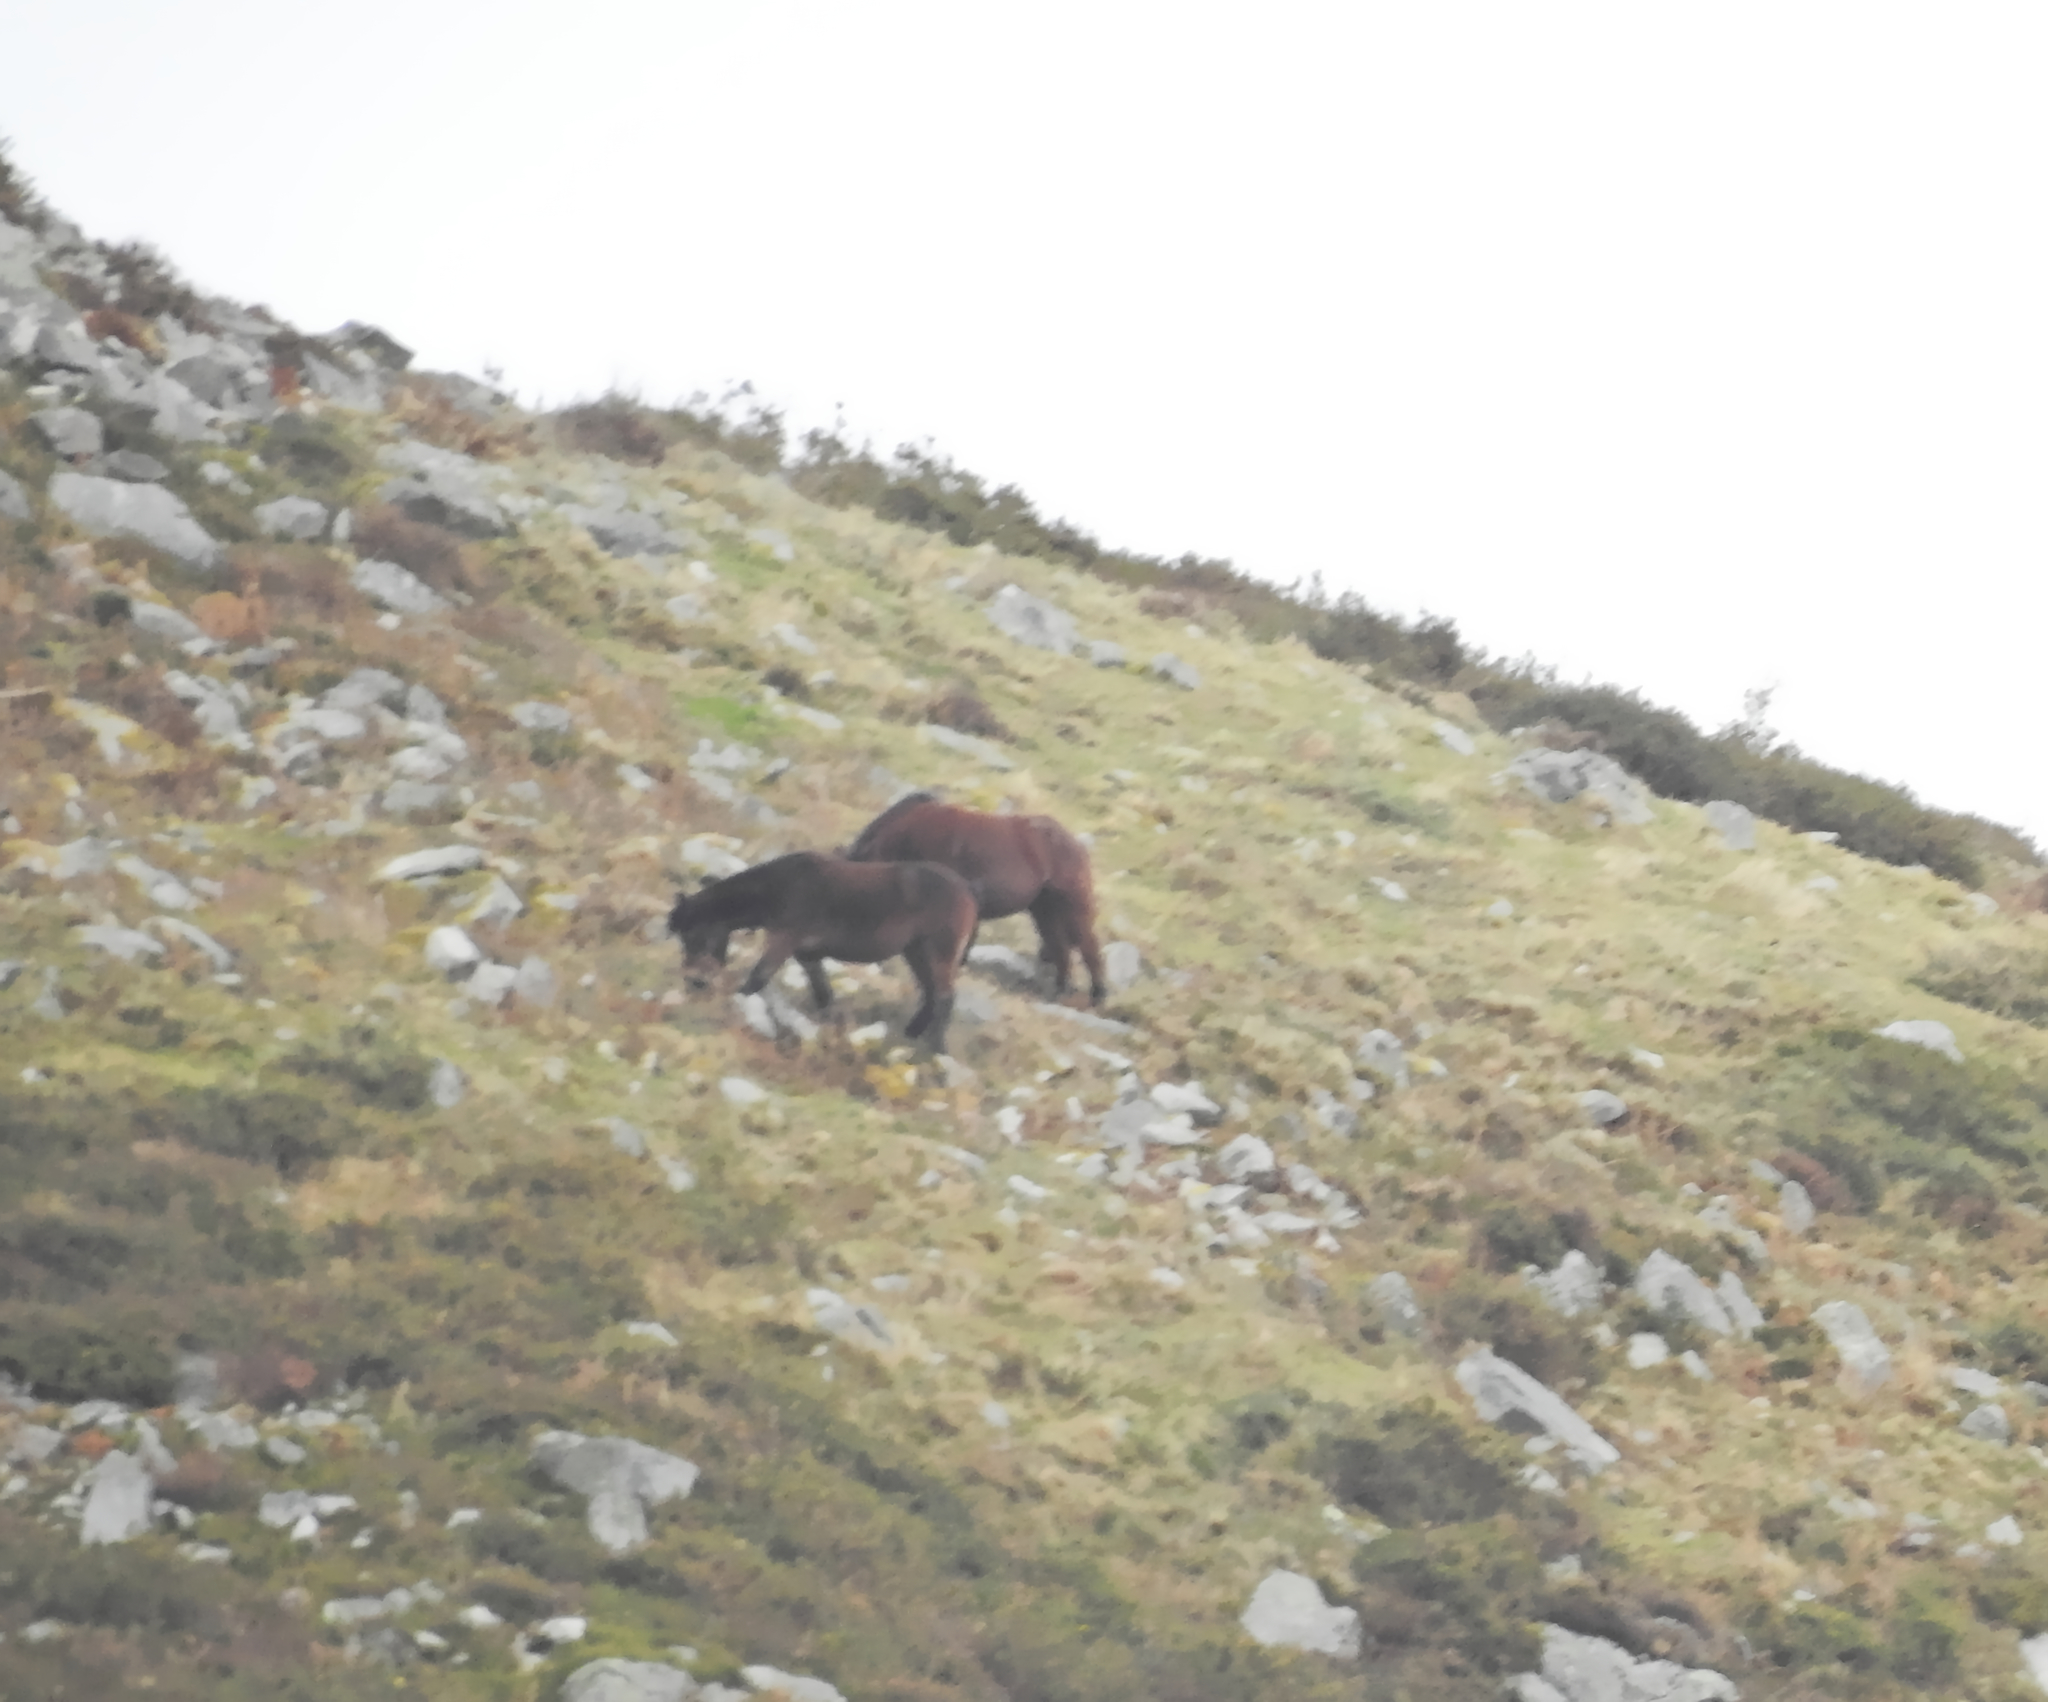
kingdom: Animalia
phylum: Chordata
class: Mammalia
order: Perissodactyla
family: Equidae
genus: Equus
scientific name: Equus caballus
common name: Horse
